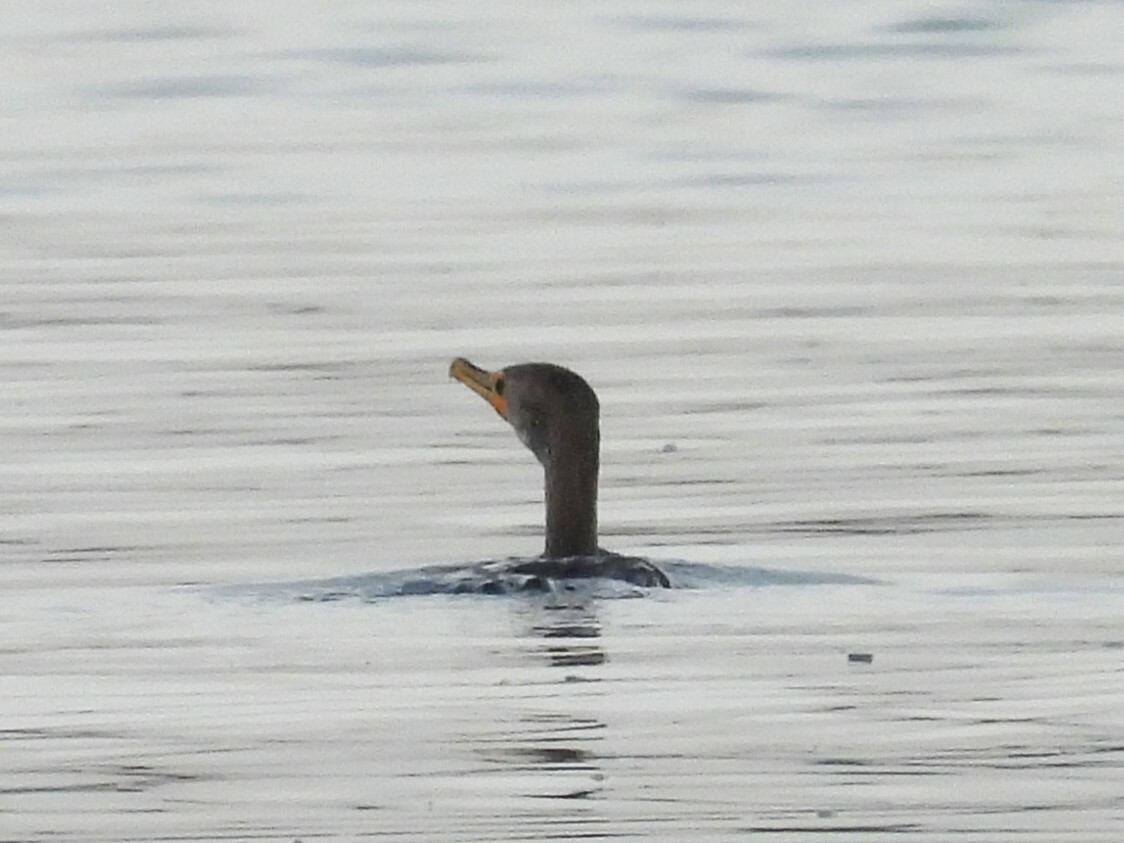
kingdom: Animalia
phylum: Chordata
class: Aves
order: Suliformes
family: Phalacrocoracidae
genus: Phalacrocorax
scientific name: Phalacrocorax auritus
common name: Double-crested cormorant
